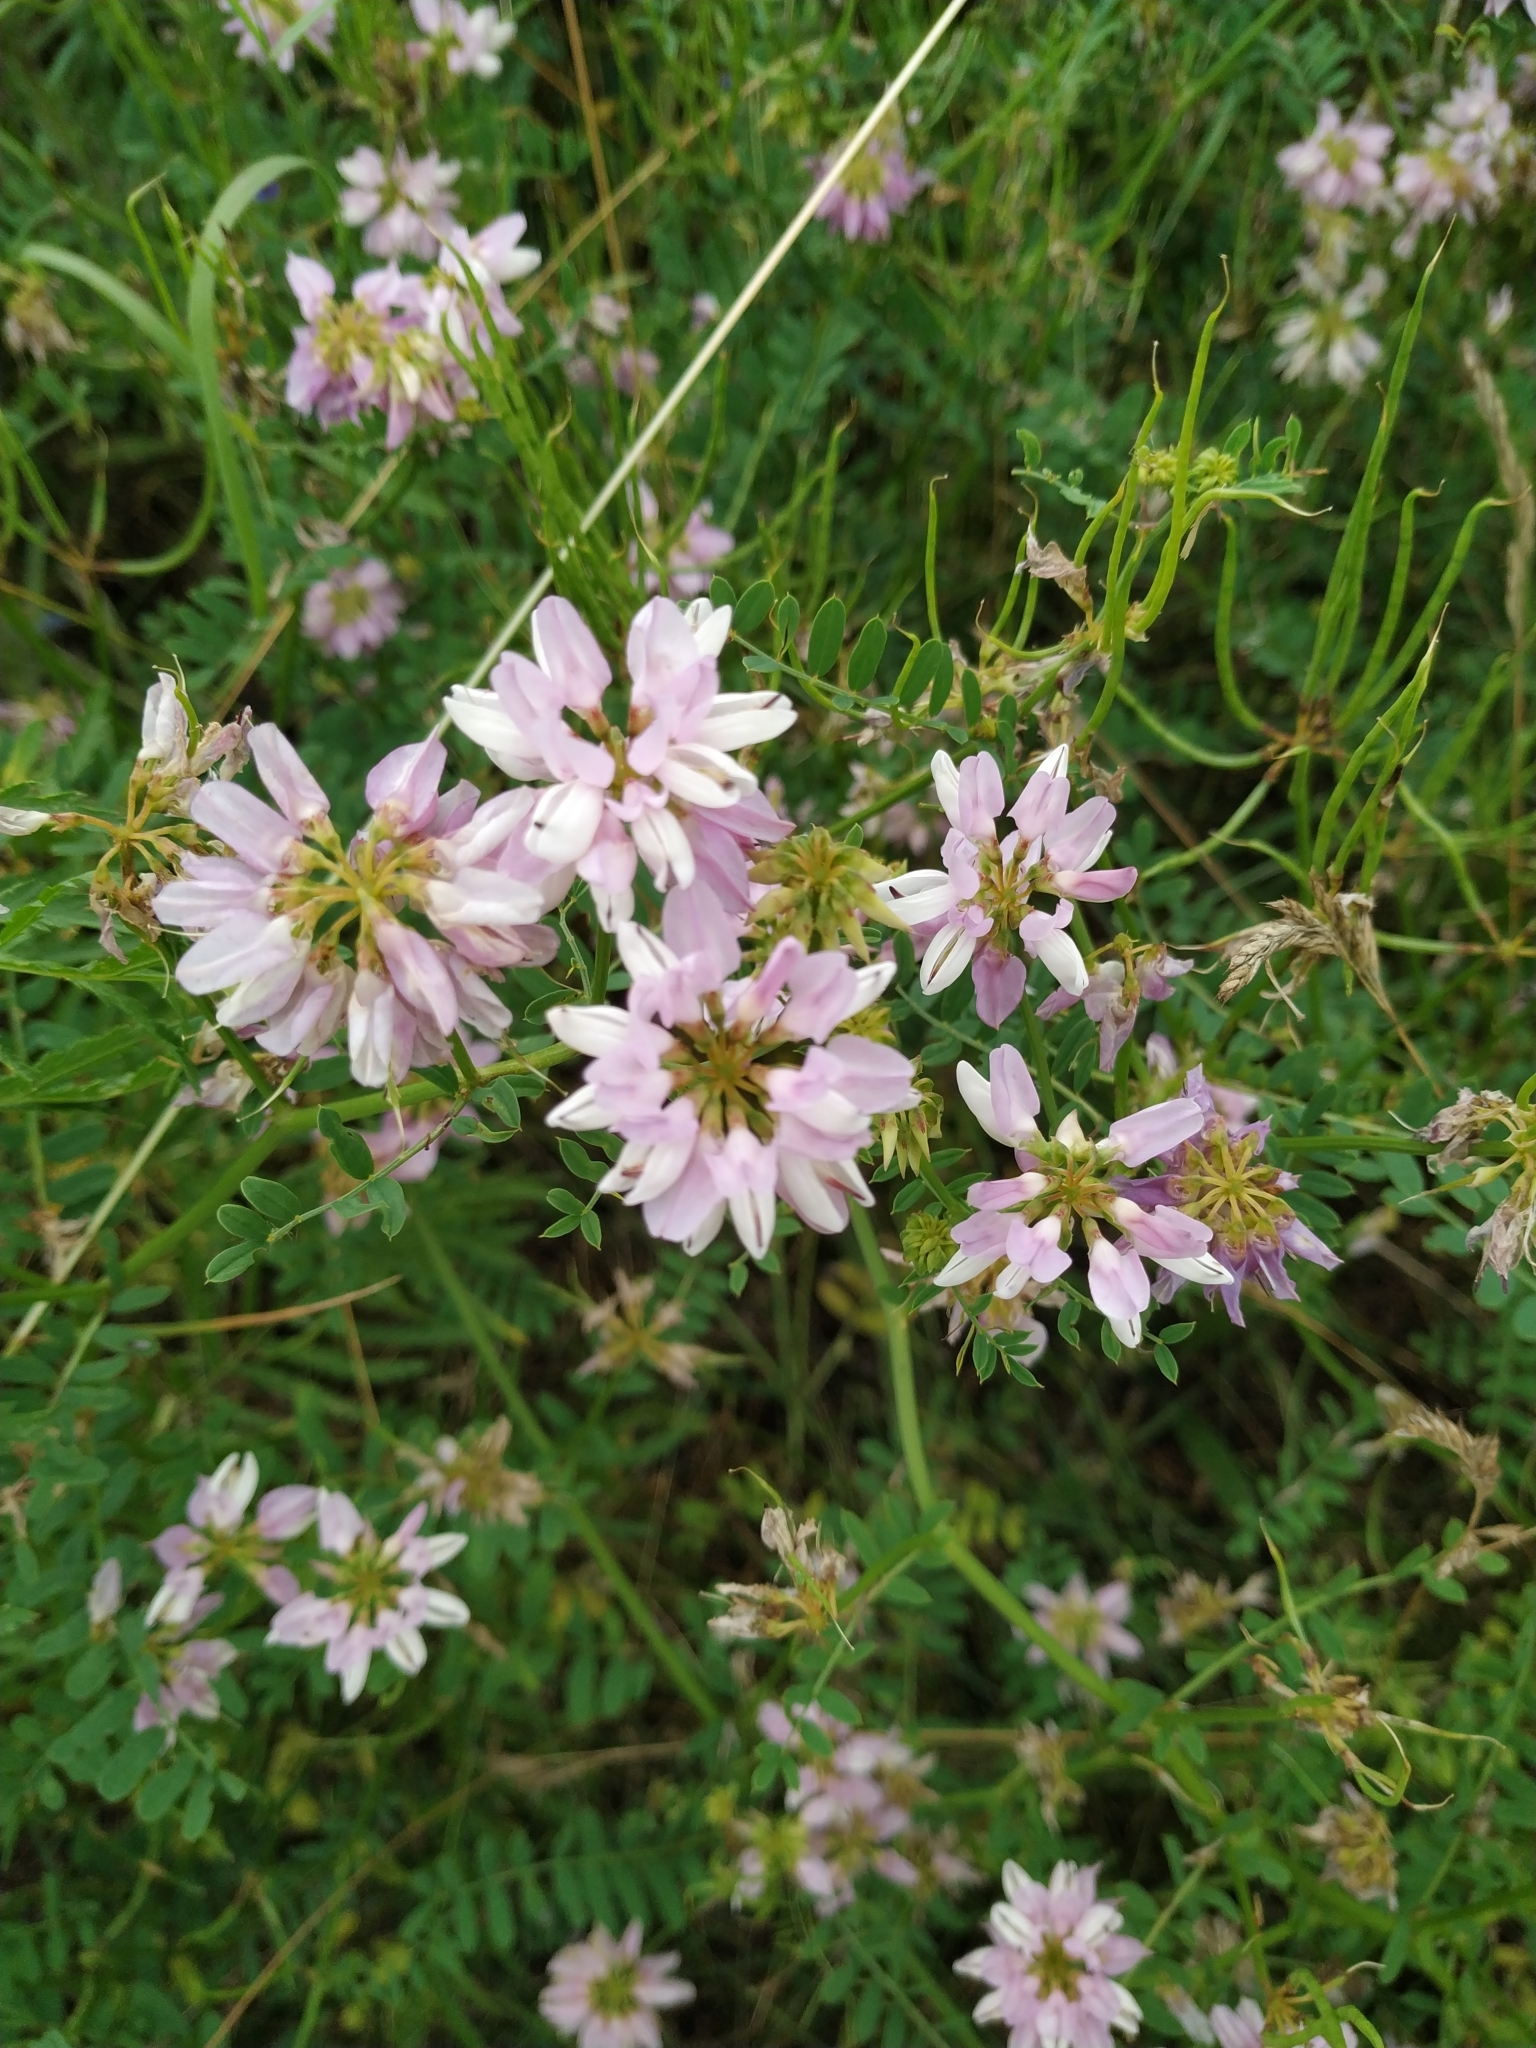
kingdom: Plantae
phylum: Tracheophyta
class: Magnoliopsida
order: Fabales
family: Fabaceae
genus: Coronilla
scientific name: Coronilla varia
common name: Crownvetch
